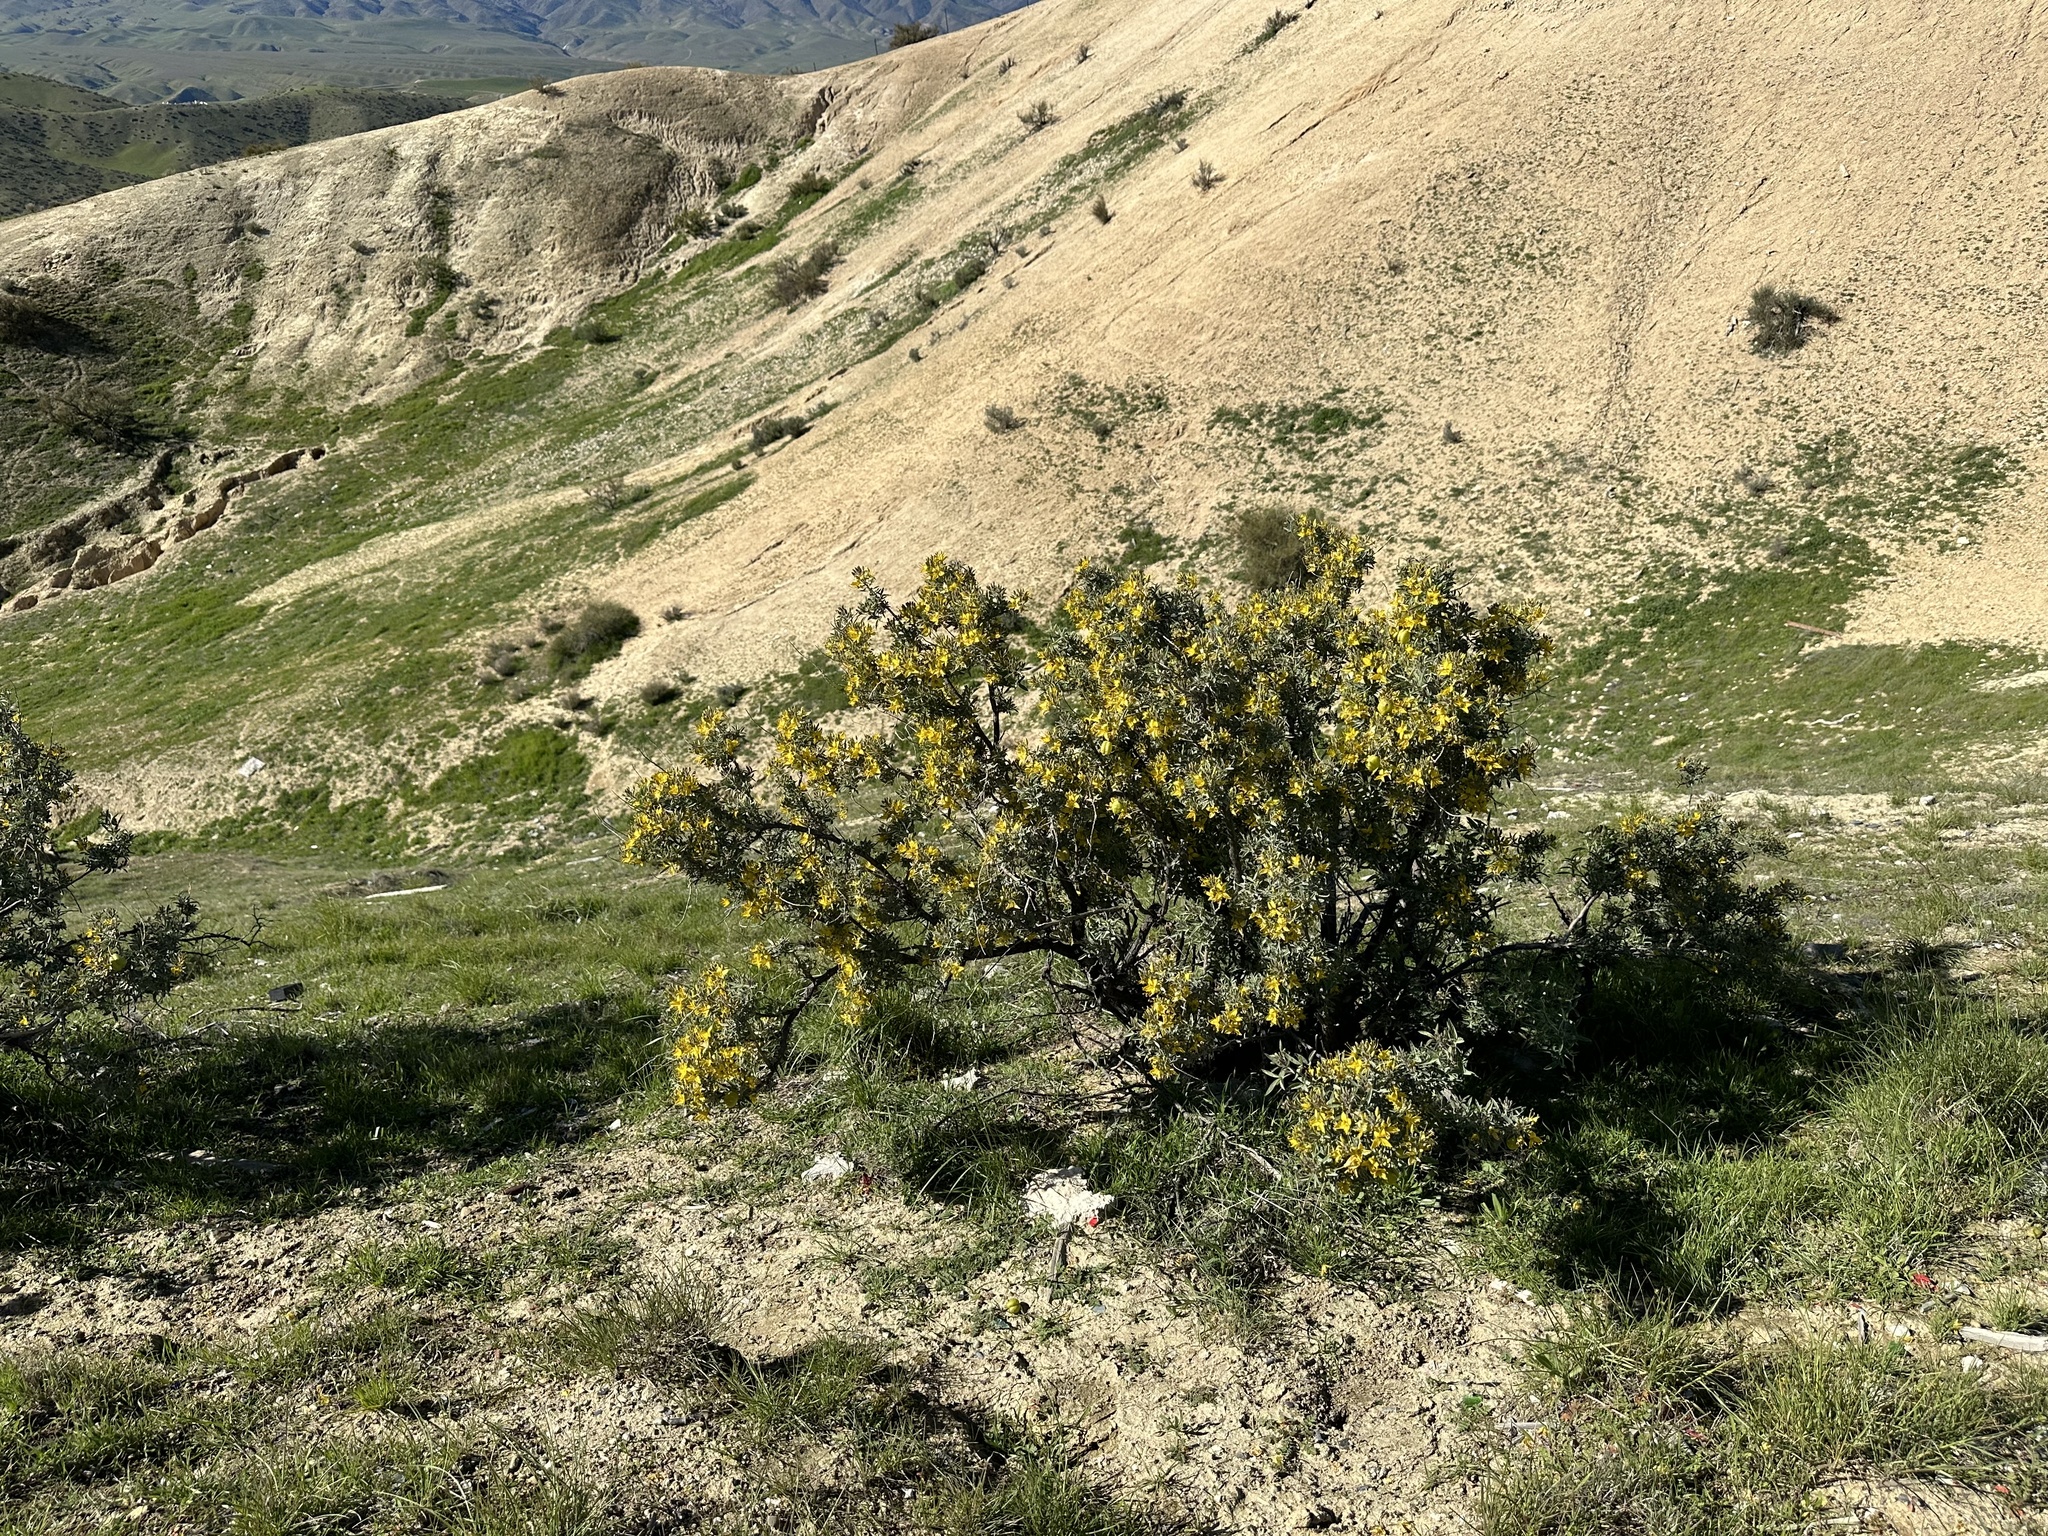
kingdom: Plantae
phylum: Tracheophyta
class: Magnoliopsida
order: Brassicales
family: Cleomaceae
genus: Cleomella
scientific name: Cleomella arborea
